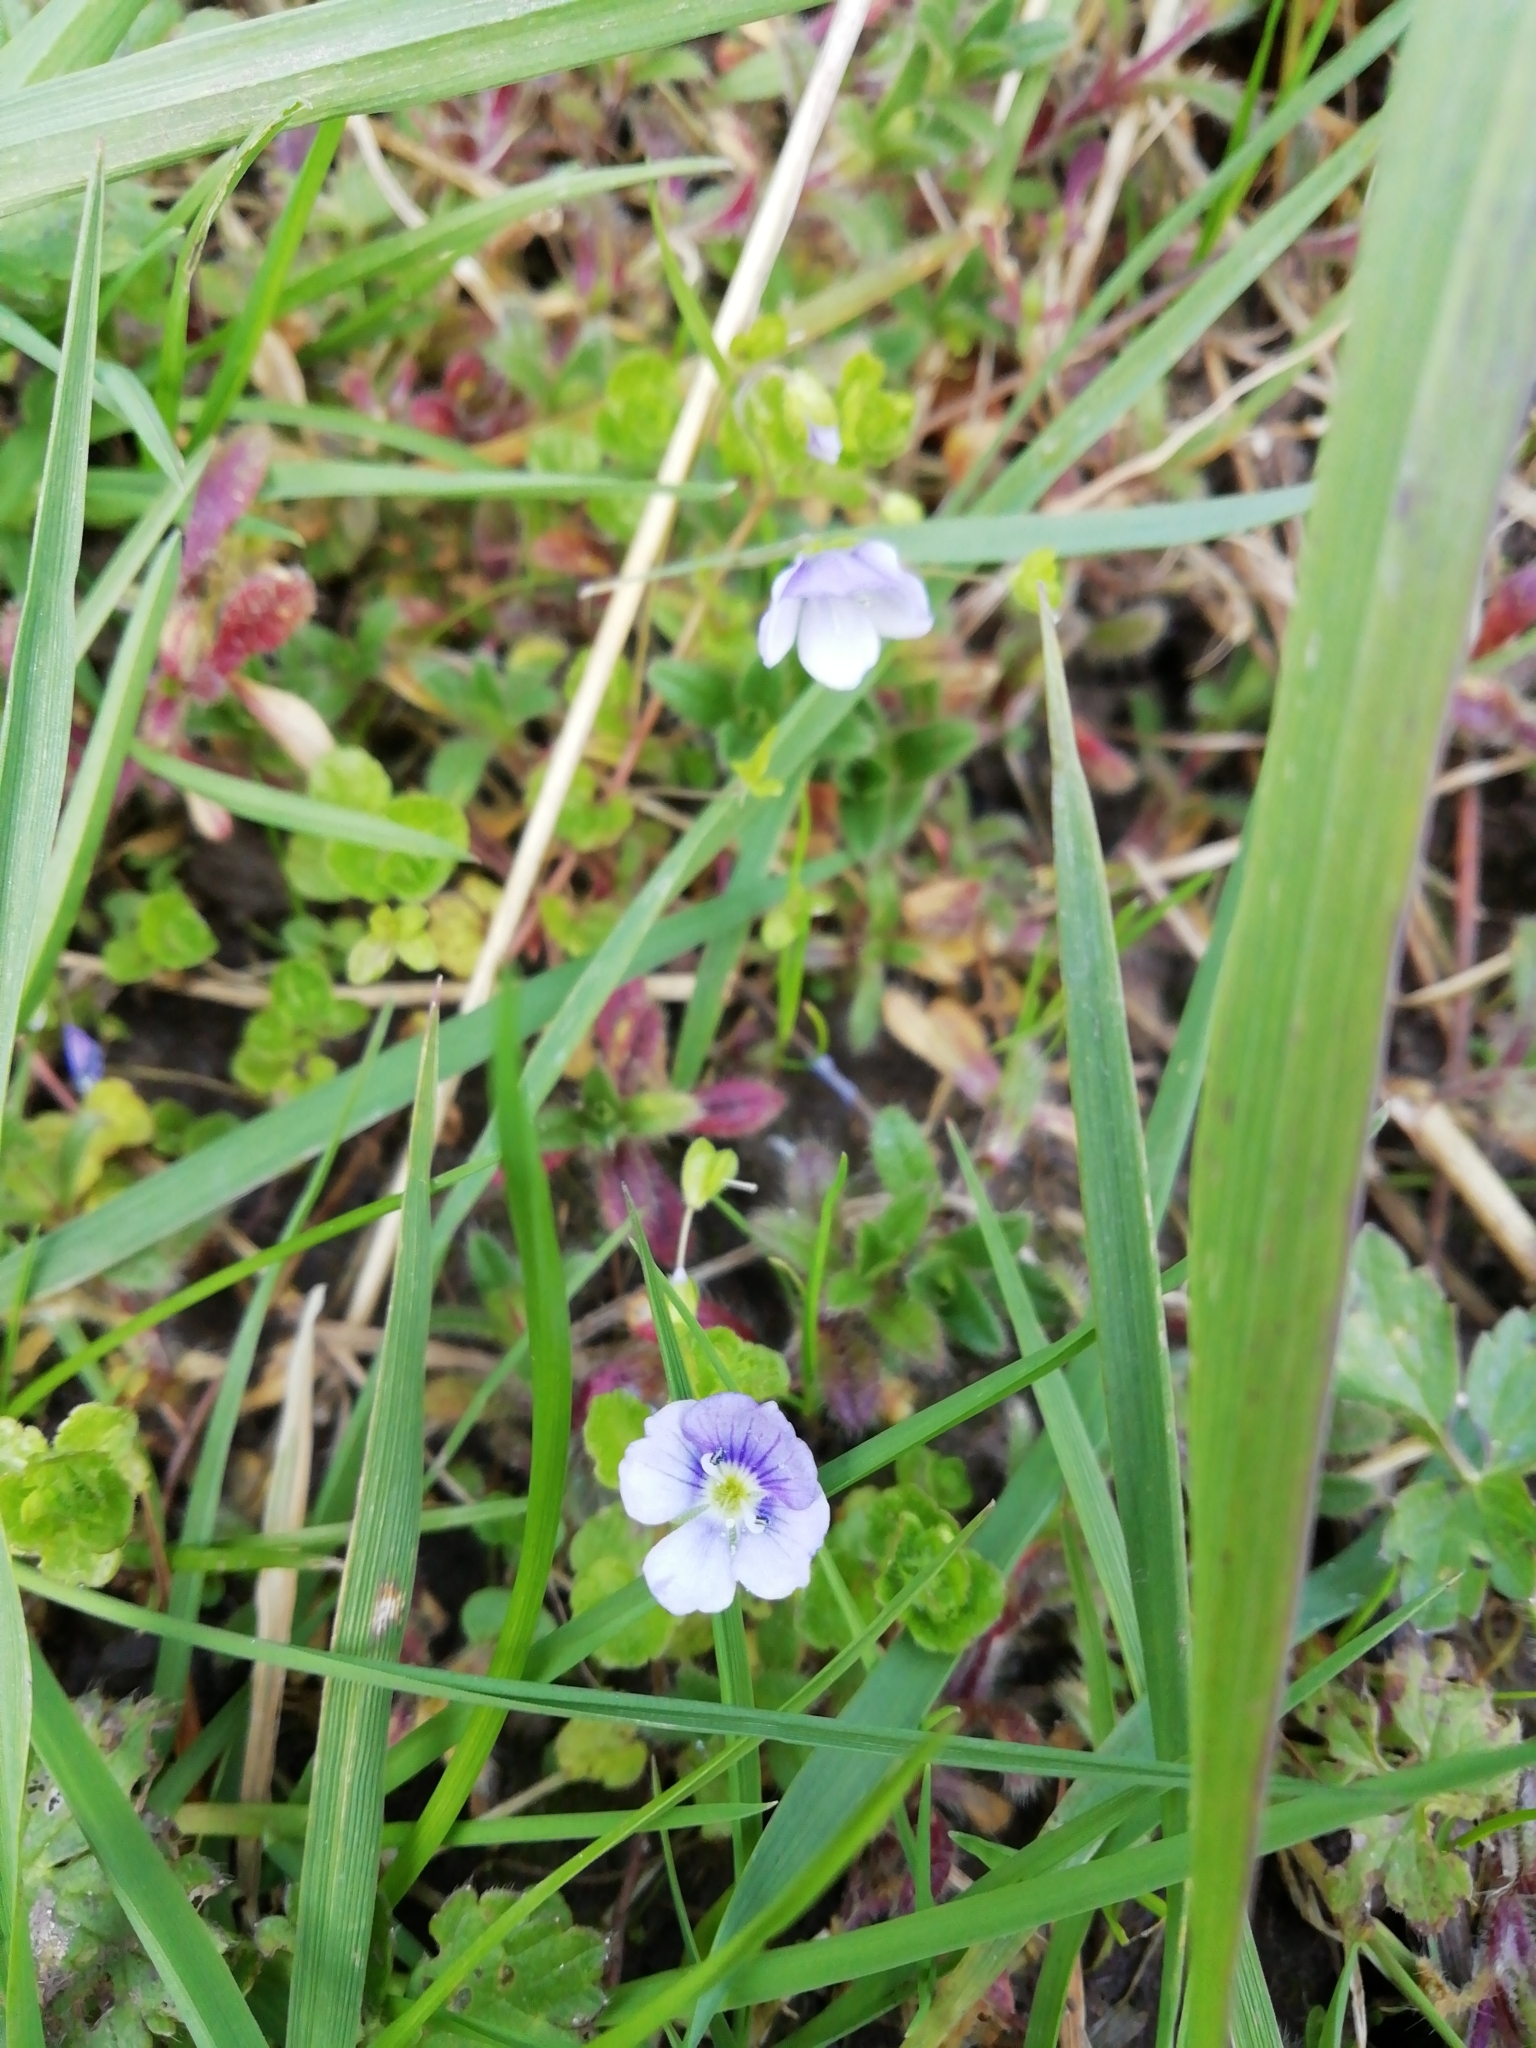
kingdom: Plantae
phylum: Tracheophyta
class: Magnoliopsida
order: Lamiales
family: Plantaginaceae
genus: Veronica
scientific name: Veronica filiformis
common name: Slender speedwell
